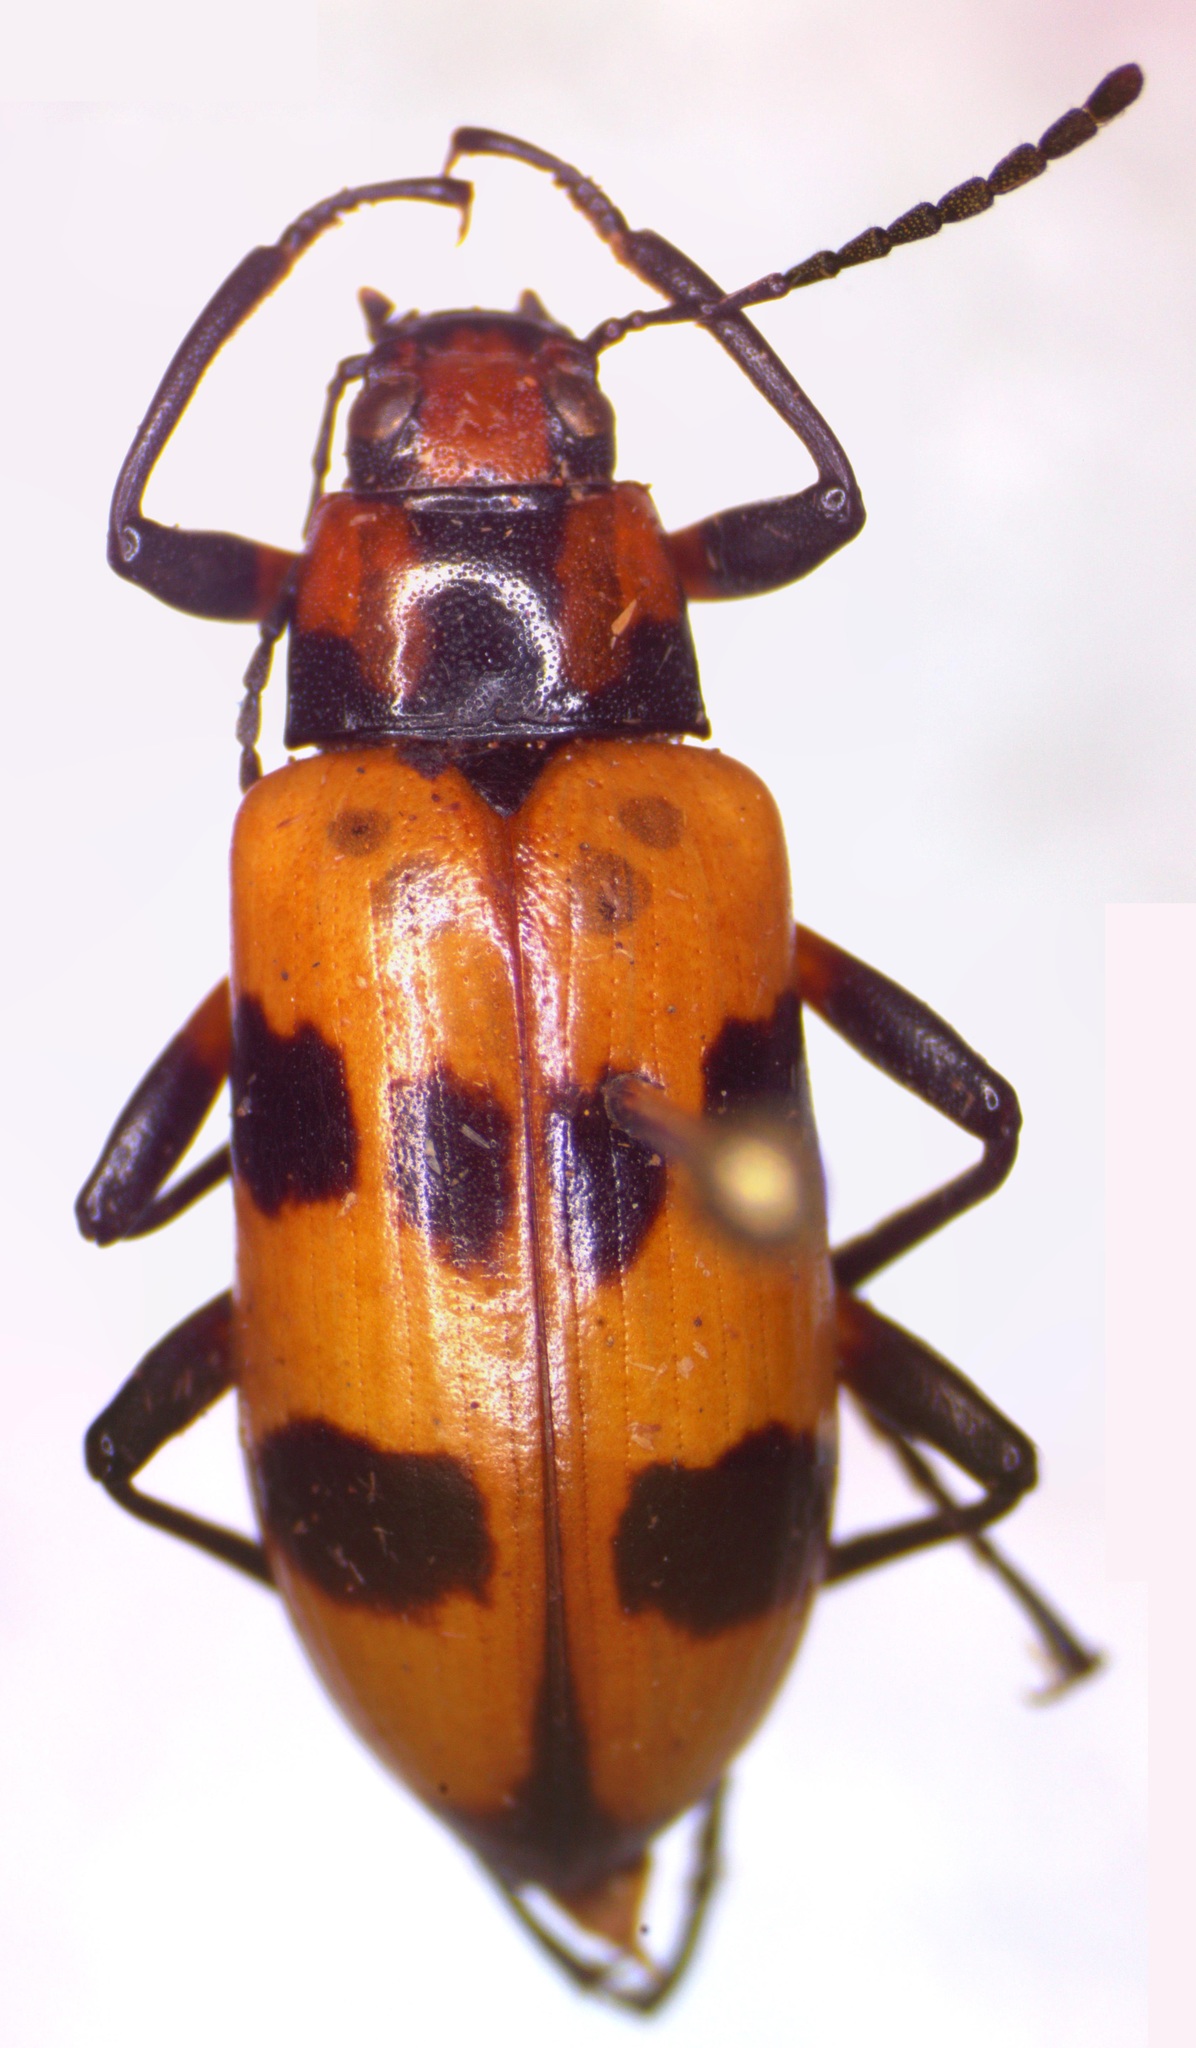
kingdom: Animalia
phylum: Arthropoda
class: Insecta
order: Coleoptera
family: Tenebrionidae
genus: Strongylium
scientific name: Strongylium maculicolle
